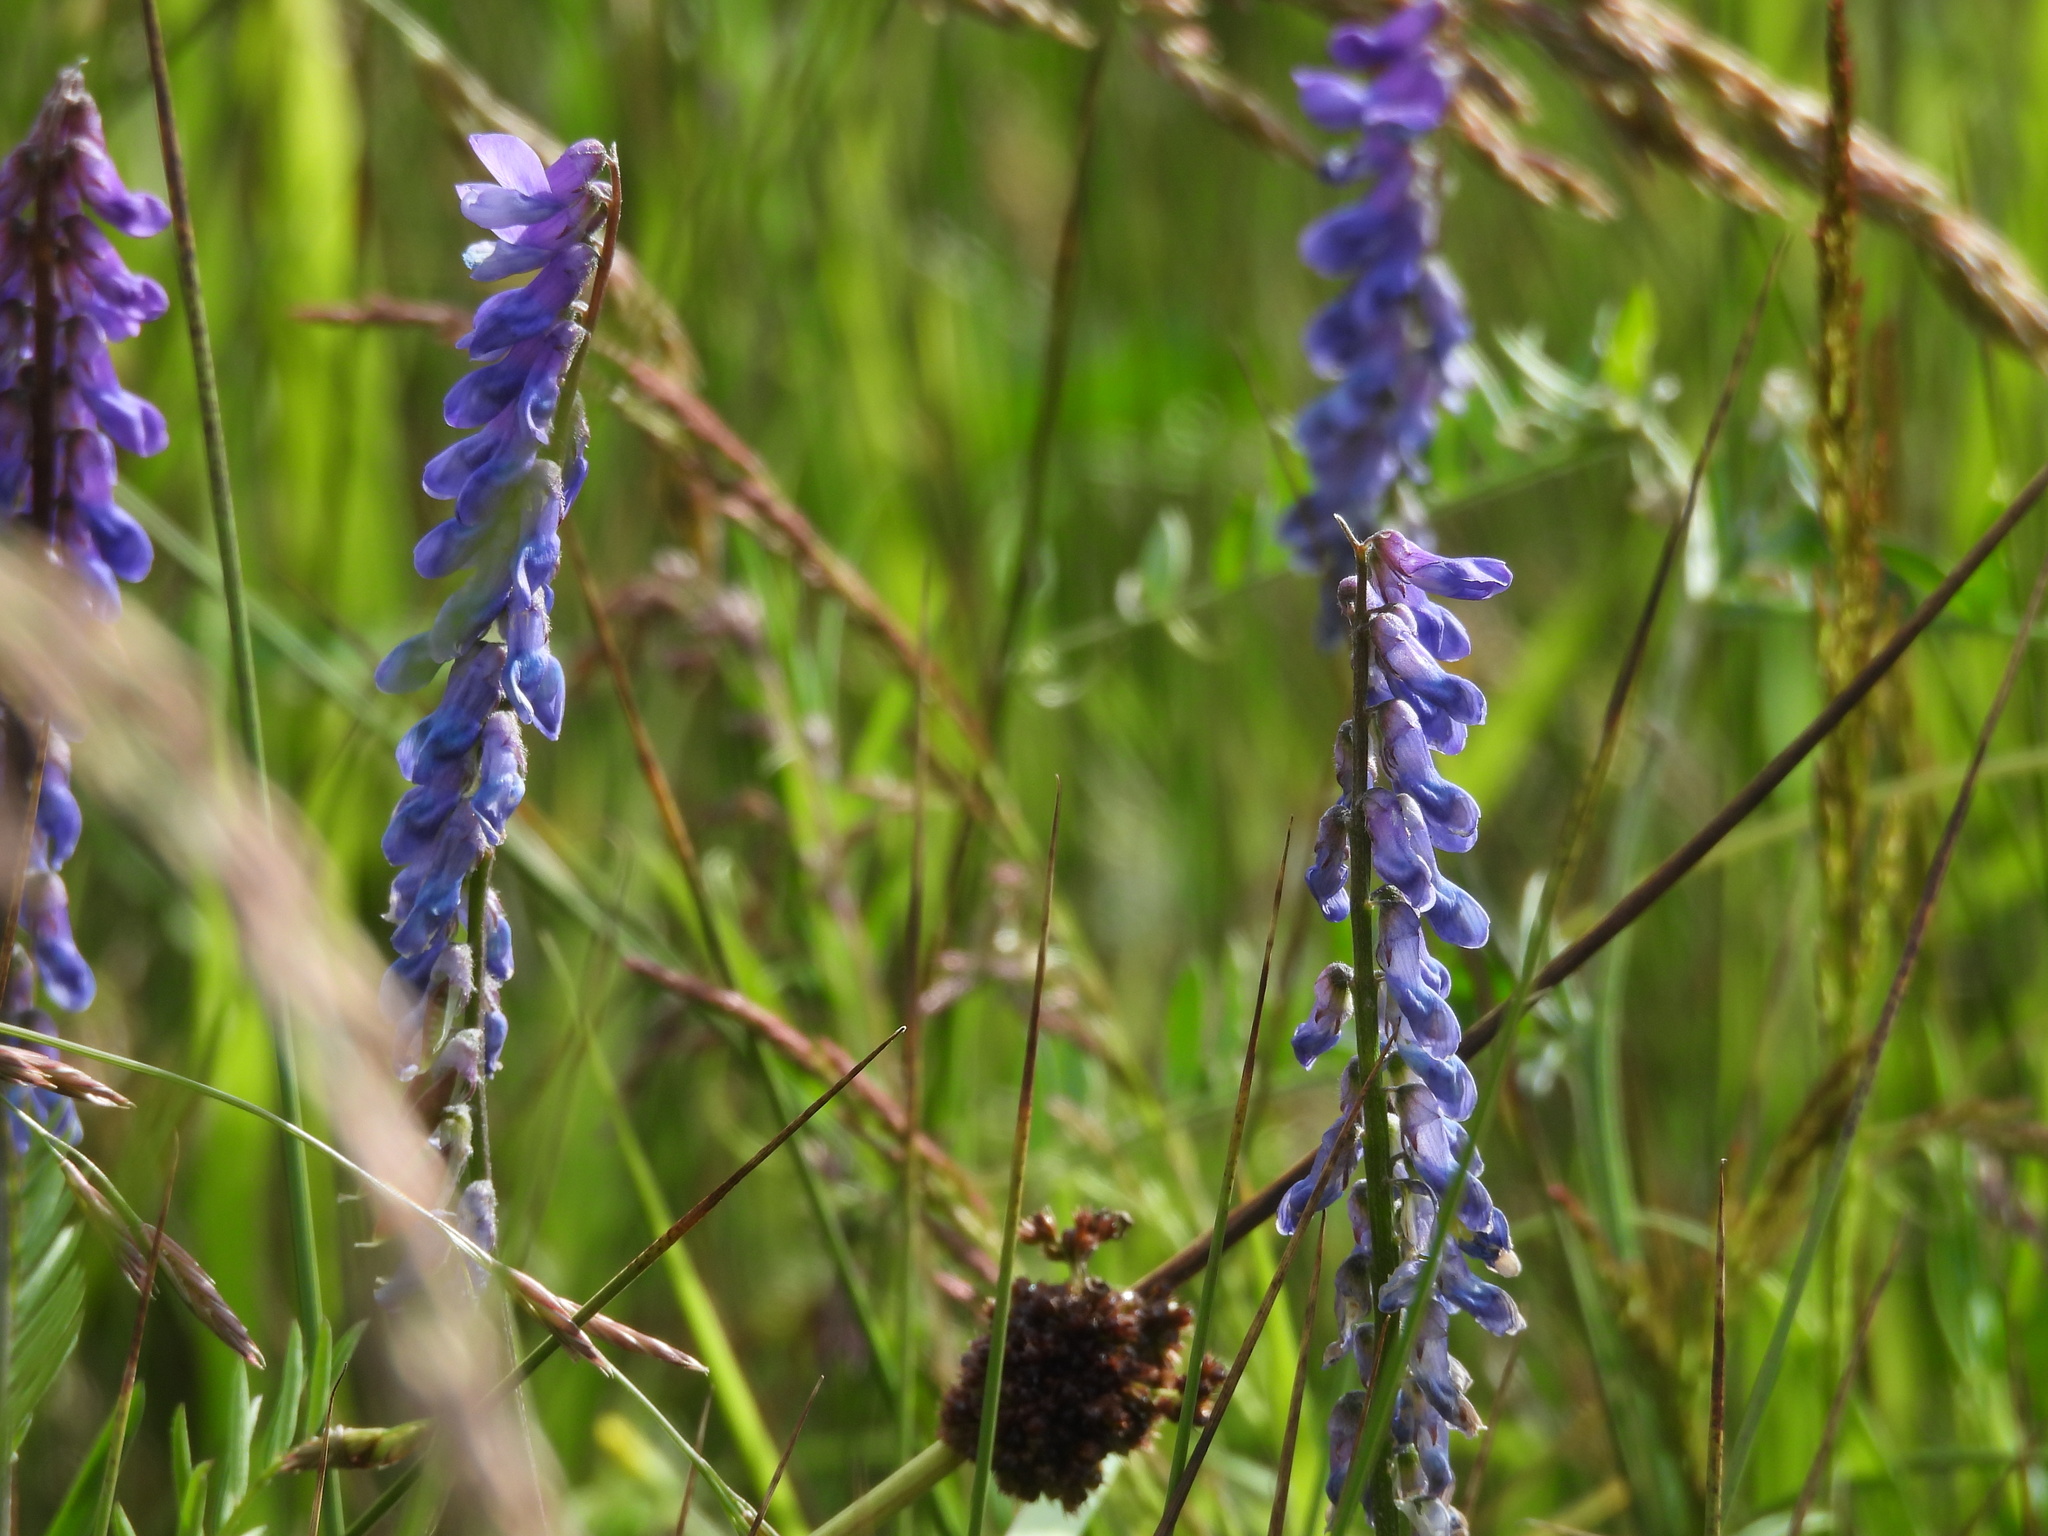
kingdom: Plantae
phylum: Tracheophyta
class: Magnoliopsida
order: Fabales
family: Fabaceae
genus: Vicia
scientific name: Vicia cracca
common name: Bird vetch
